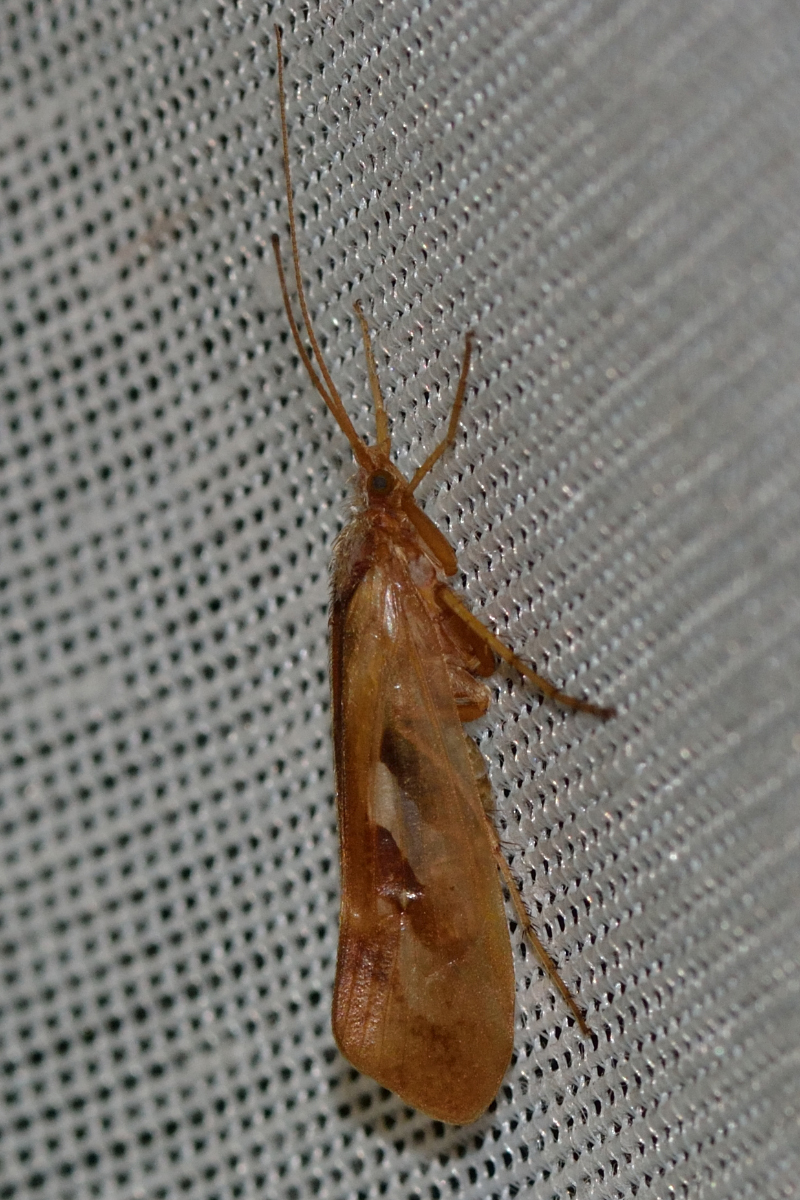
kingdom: Animalia
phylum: Arthropoda
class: Insecta
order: Trichoptera
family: Limnephilidae
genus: Limnephilus
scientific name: Limnephilus rhombicus
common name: Diamond northern caddisfly
